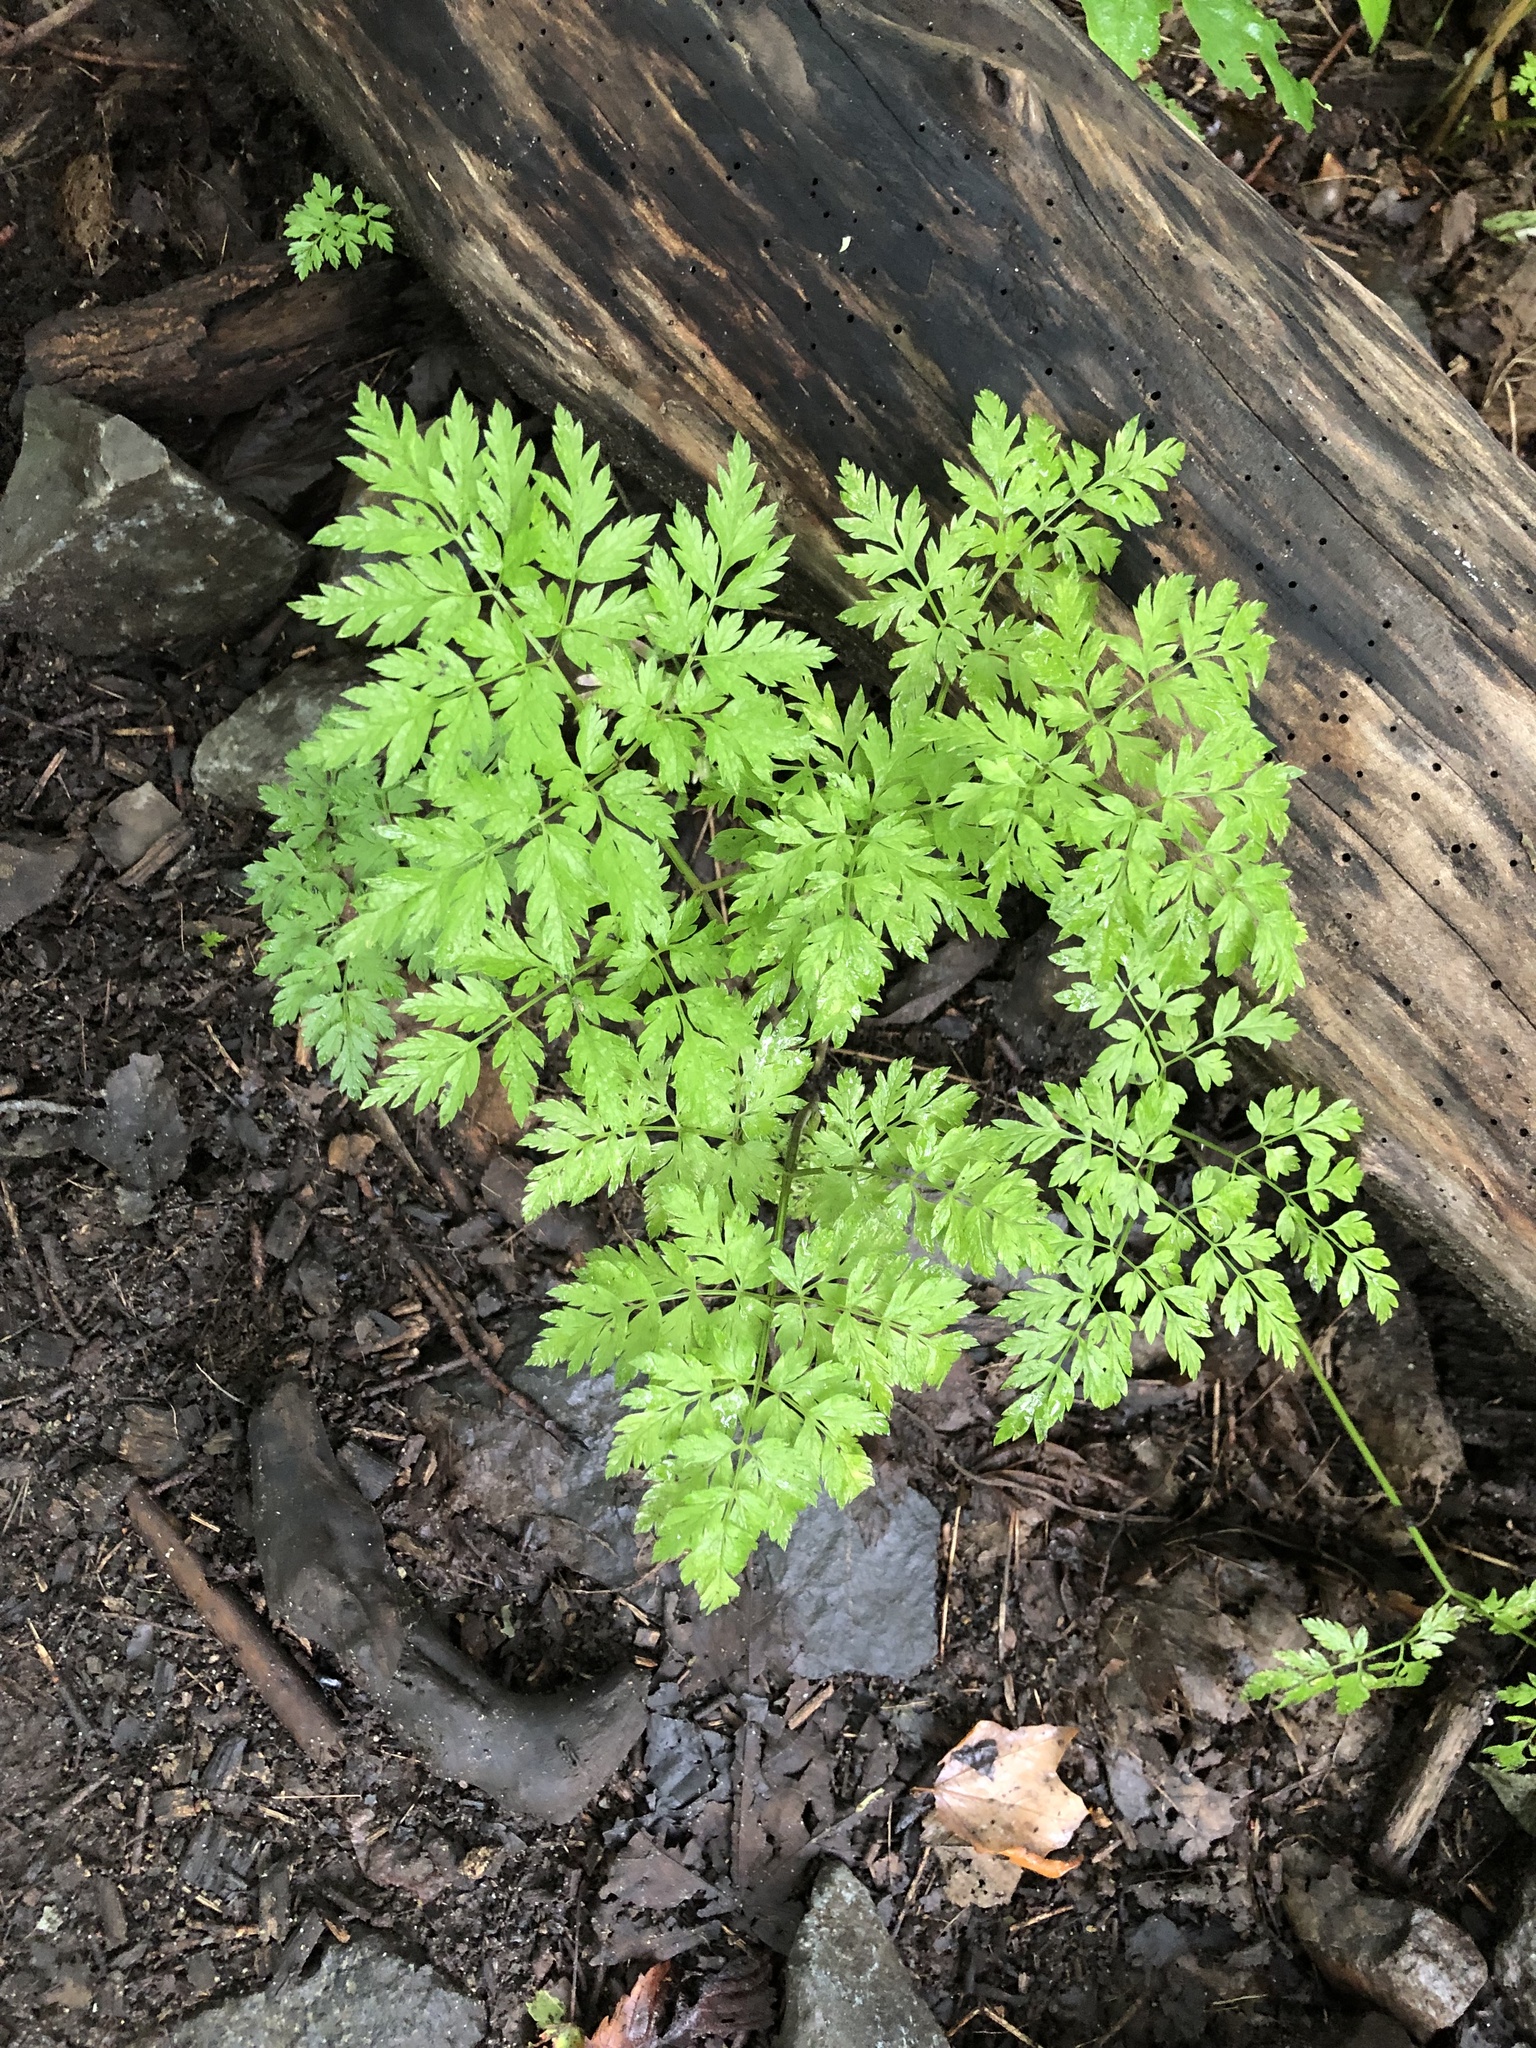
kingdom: Plantae
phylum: Tracheophyta
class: Magnoliopsida
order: Apiales
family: Apiaceae
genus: Anthriscus
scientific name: Anthriscus sylvestris
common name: Cow parsley
